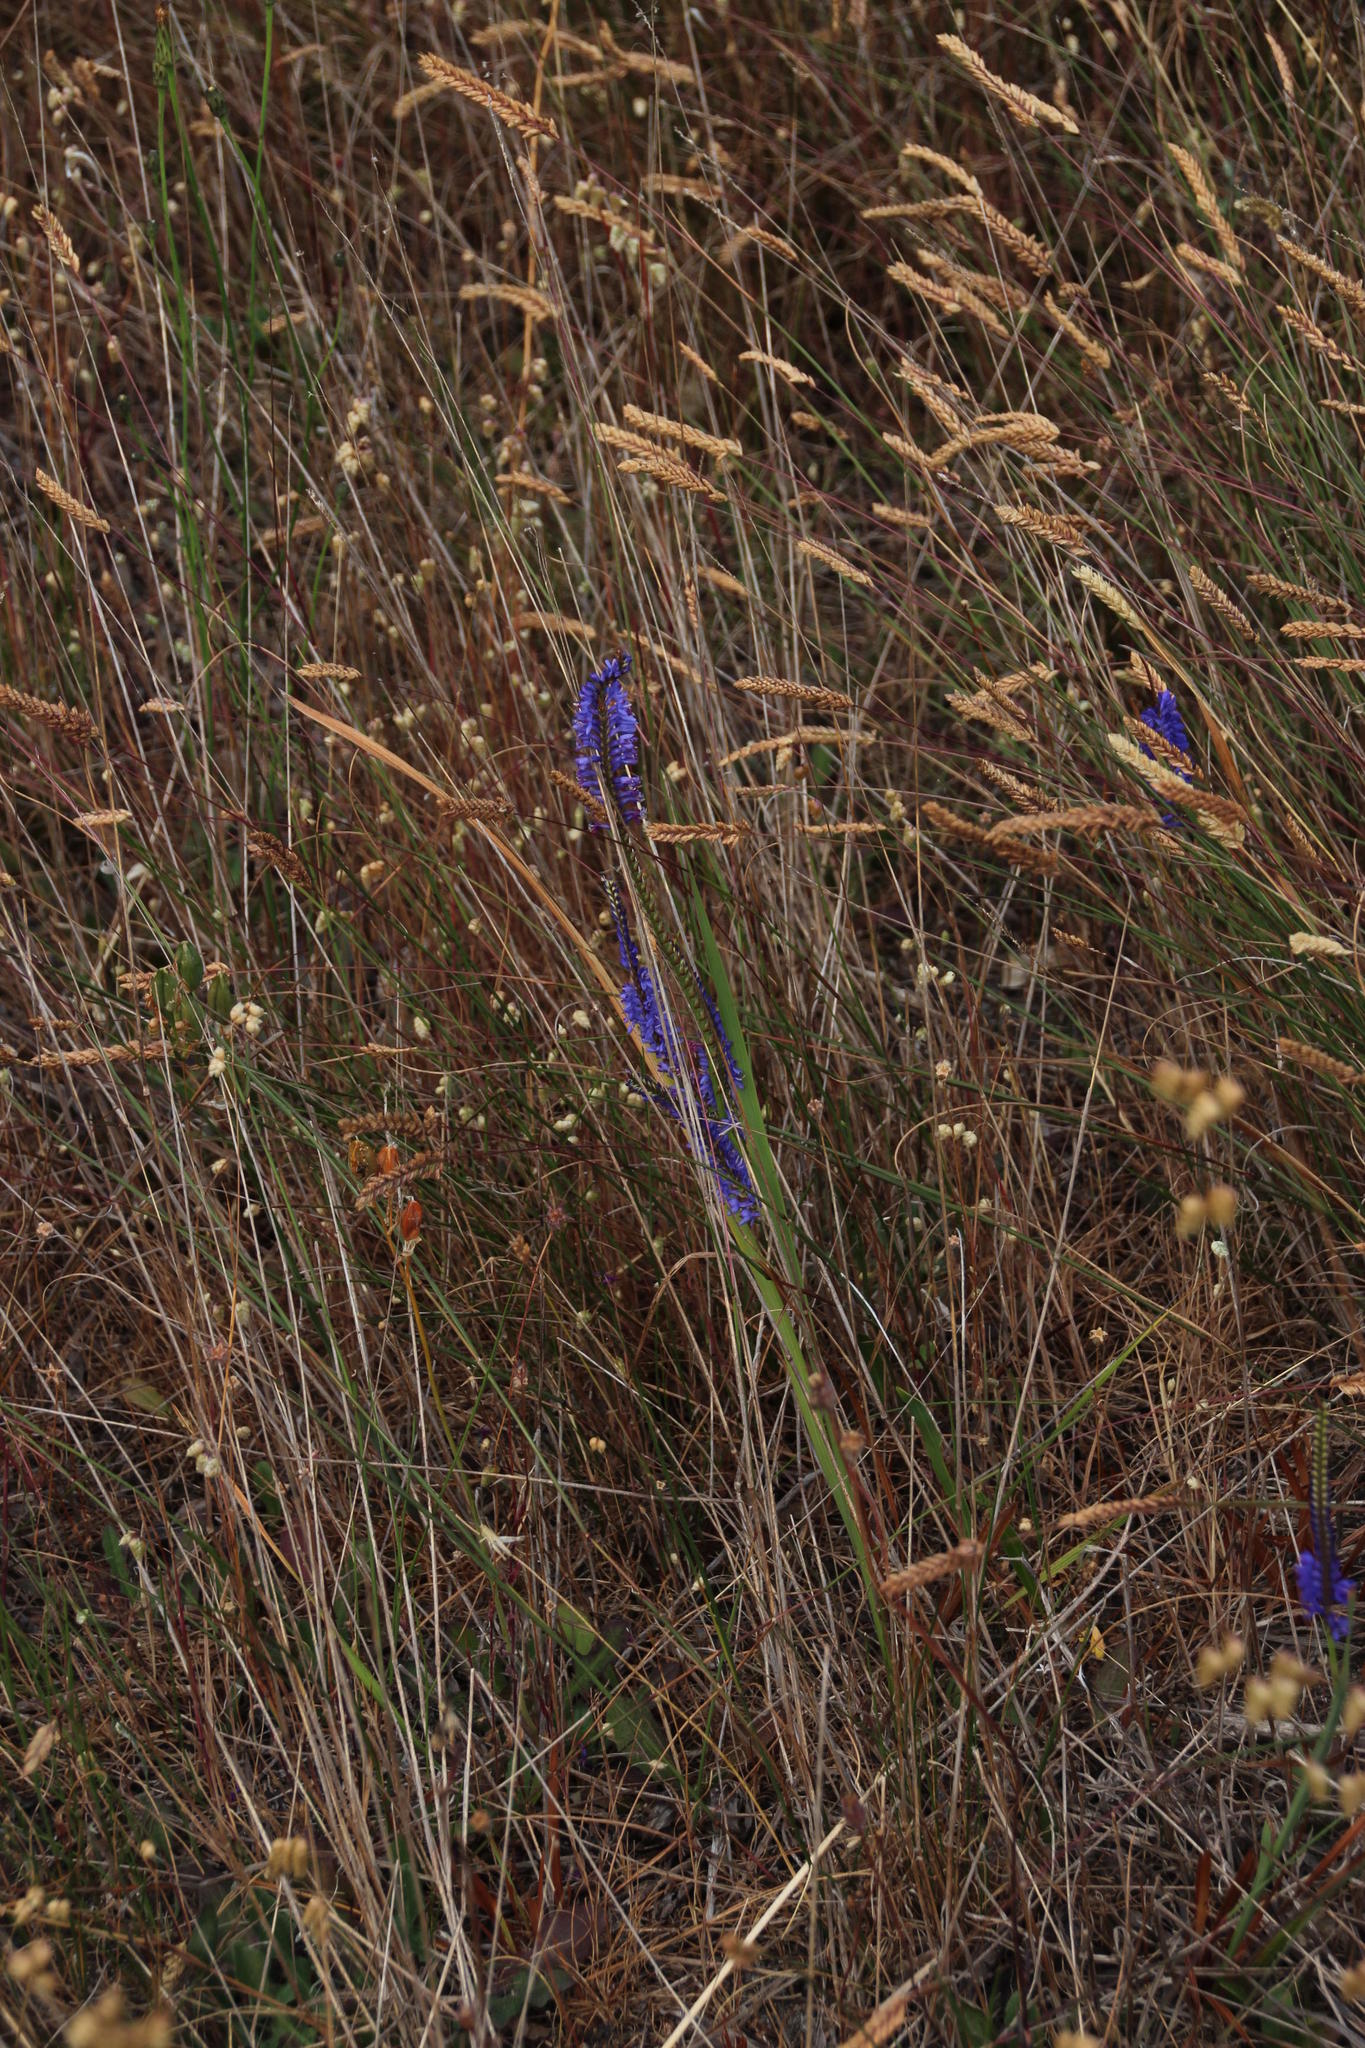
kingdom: Plantae
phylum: Tracheophyta
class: Liliopsida
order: Asparagales
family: Iridaceae
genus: Micranthus
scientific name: Micranthus plantagineus
